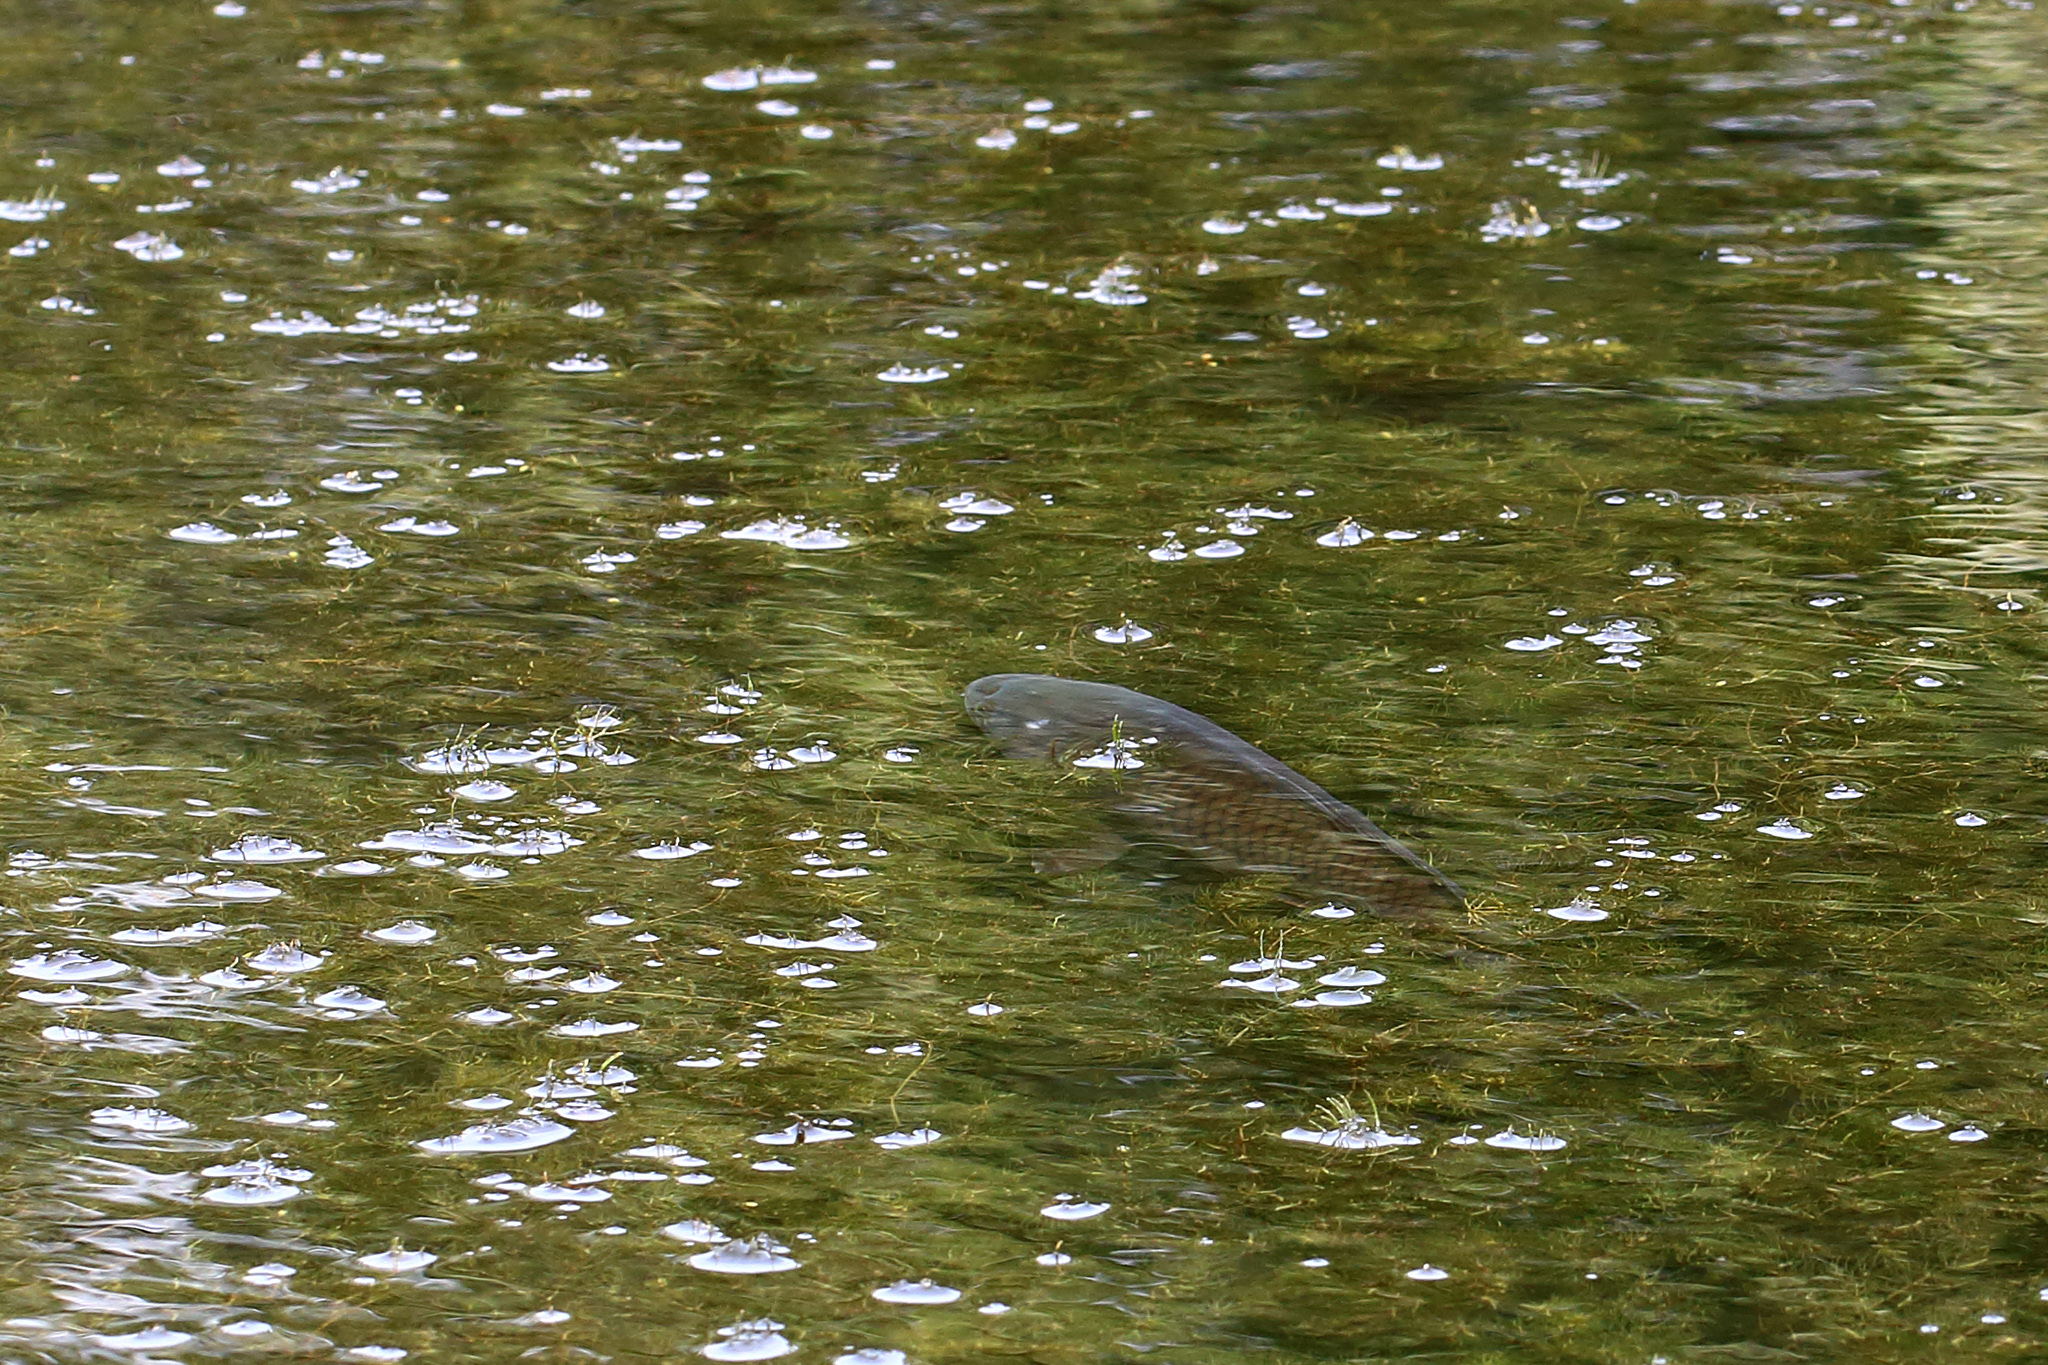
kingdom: Animalia
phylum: Chordata
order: Cypriniformes
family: Cyprinidae
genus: Cyprinus
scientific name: Cyprinus carpio
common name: Common carp
